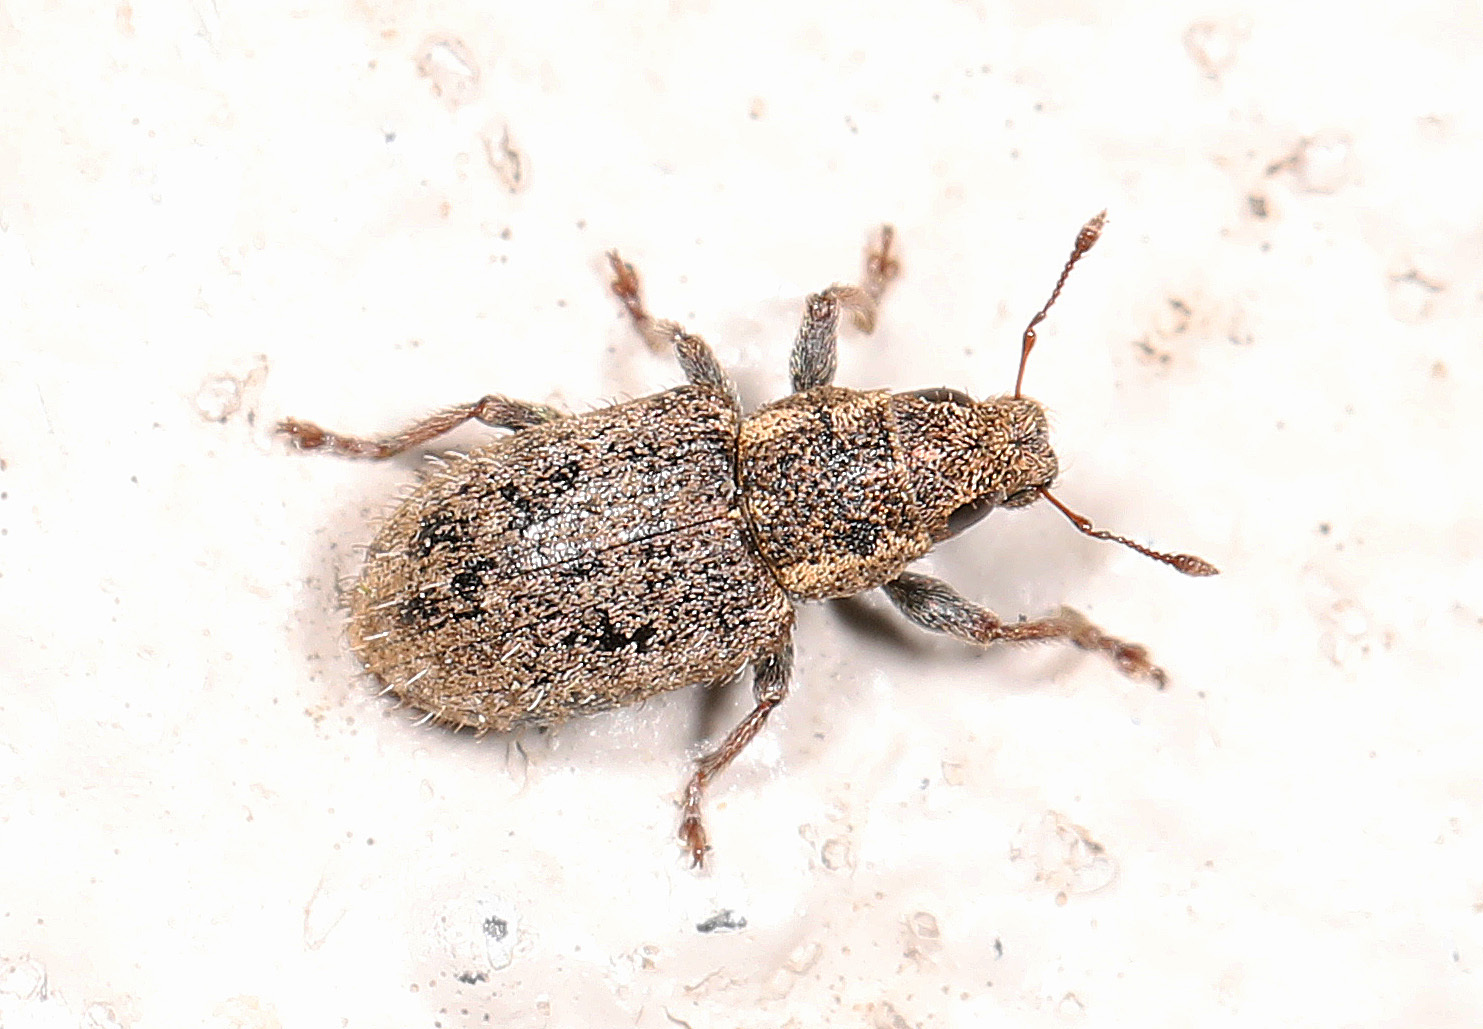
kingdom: Animalia
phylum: Arthropoda
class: Insecta
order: Coleoptera
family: Curculionidae
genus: Sitona
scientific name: Sitona hispidulus
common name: Clover weevil
